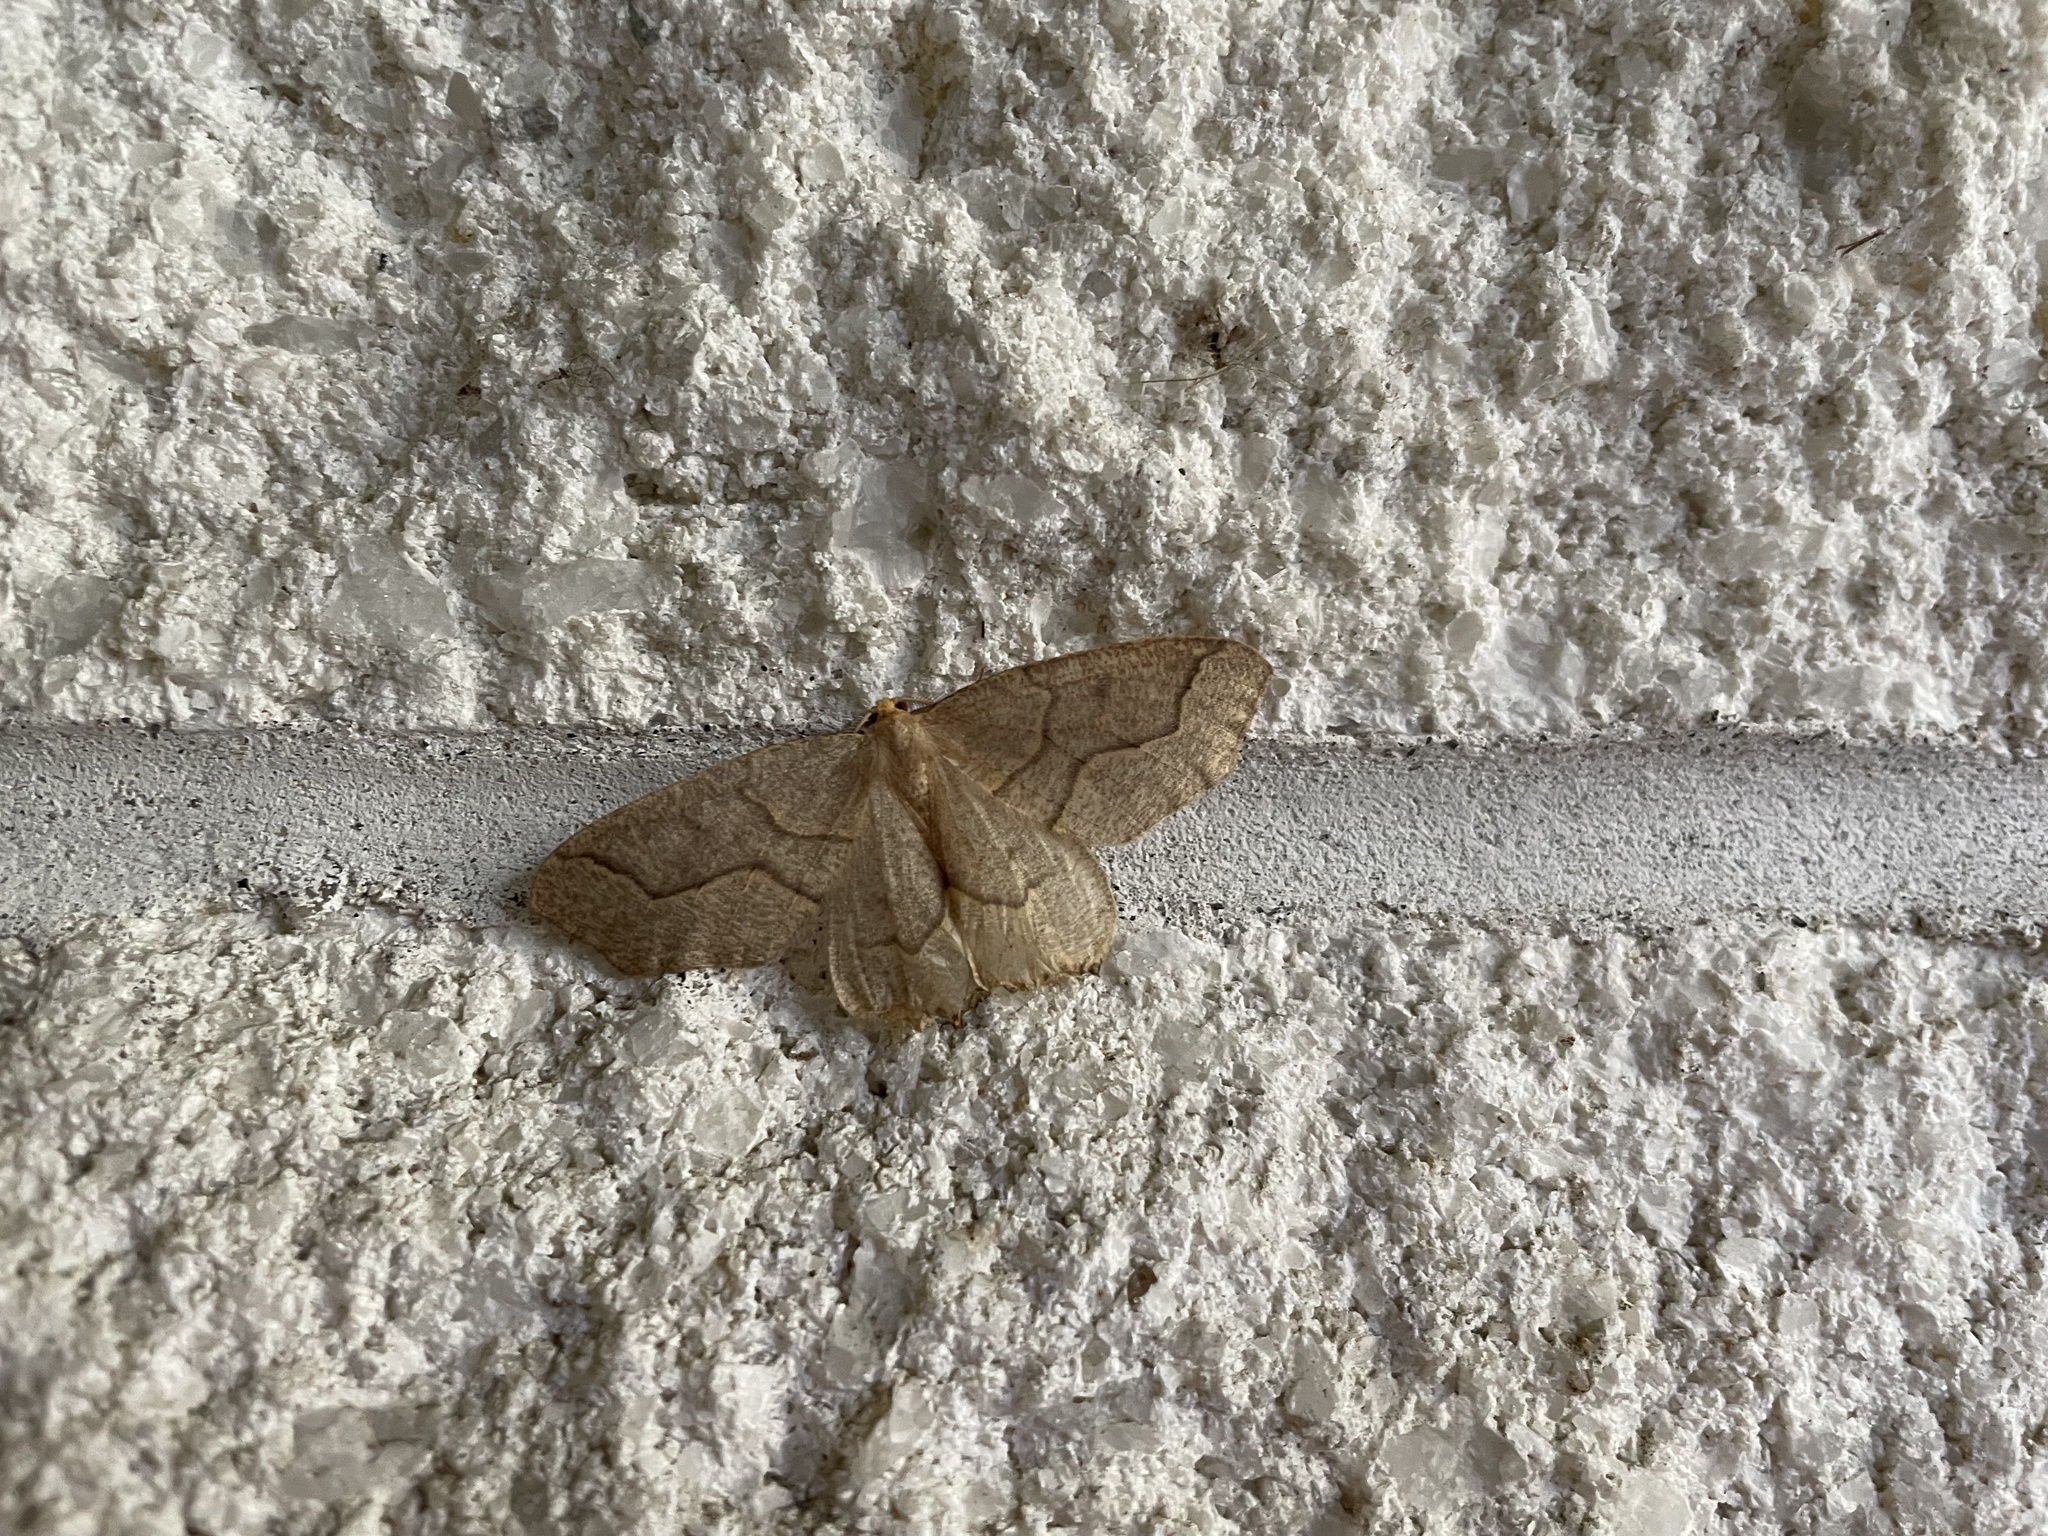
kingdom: Animalia
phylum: Arthropoda
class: Insecta
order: Lepidoptera
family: Geometridae
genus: Lambdina
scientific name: Lambdina fiscellaria
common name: Hemlock looper
